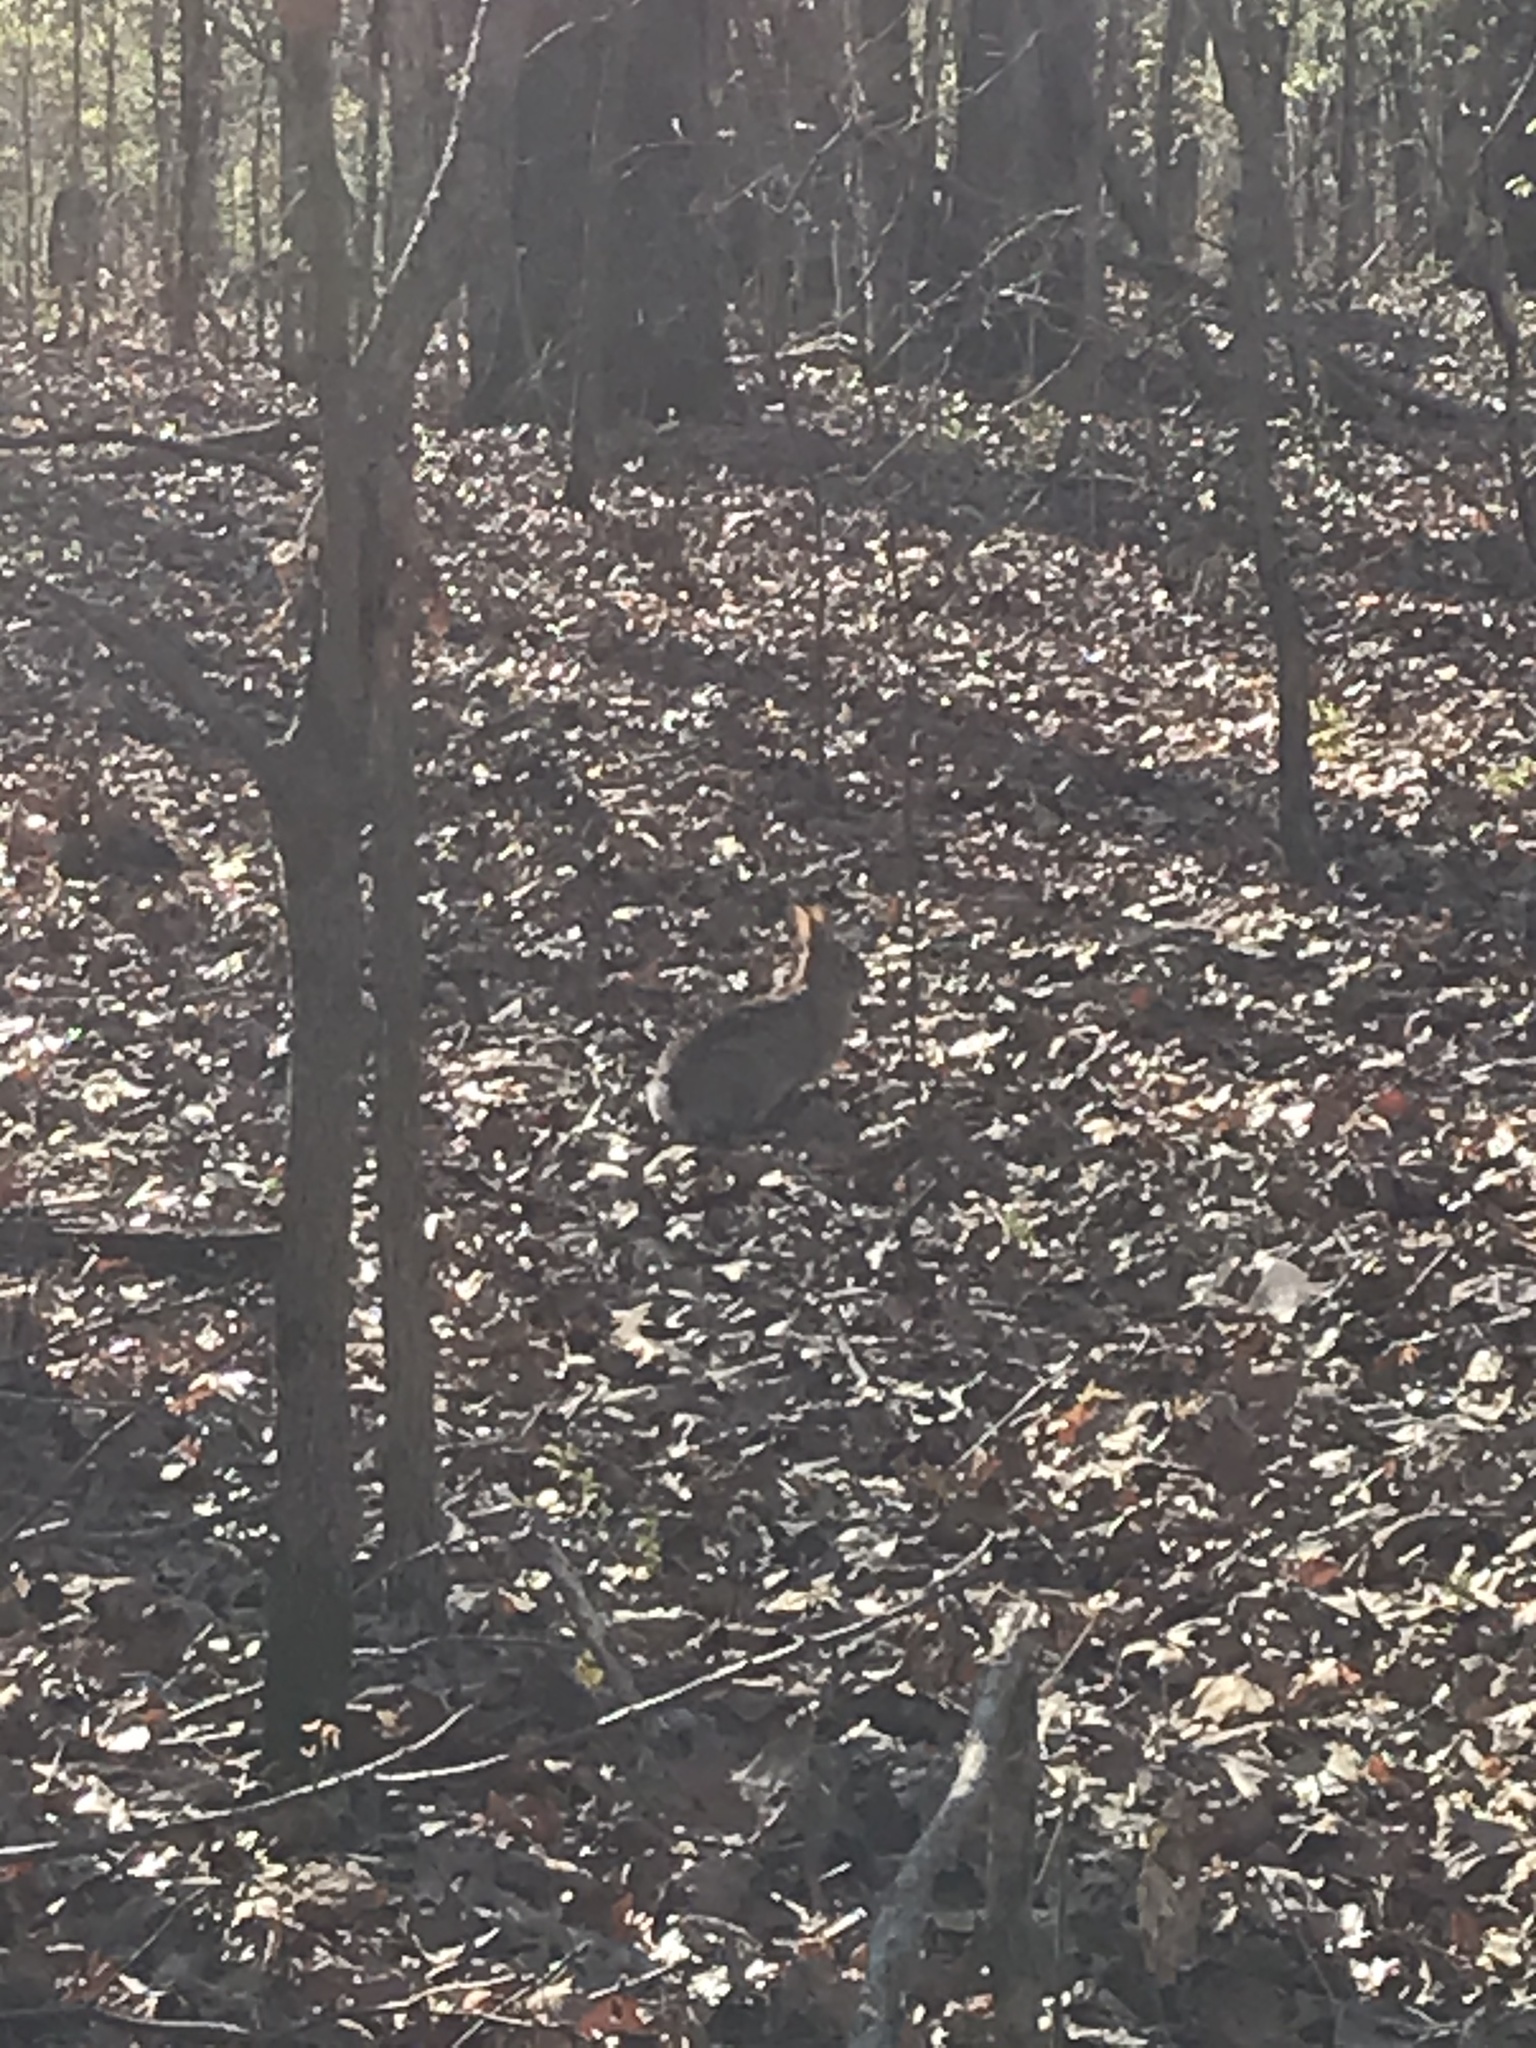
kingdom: Animalia
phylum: Chordata
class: Mammalia
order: Lagomorpha
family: Leporidae
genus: Sylvilagus
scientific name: Sylvilagus floridanus
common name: Eastern cottontail
